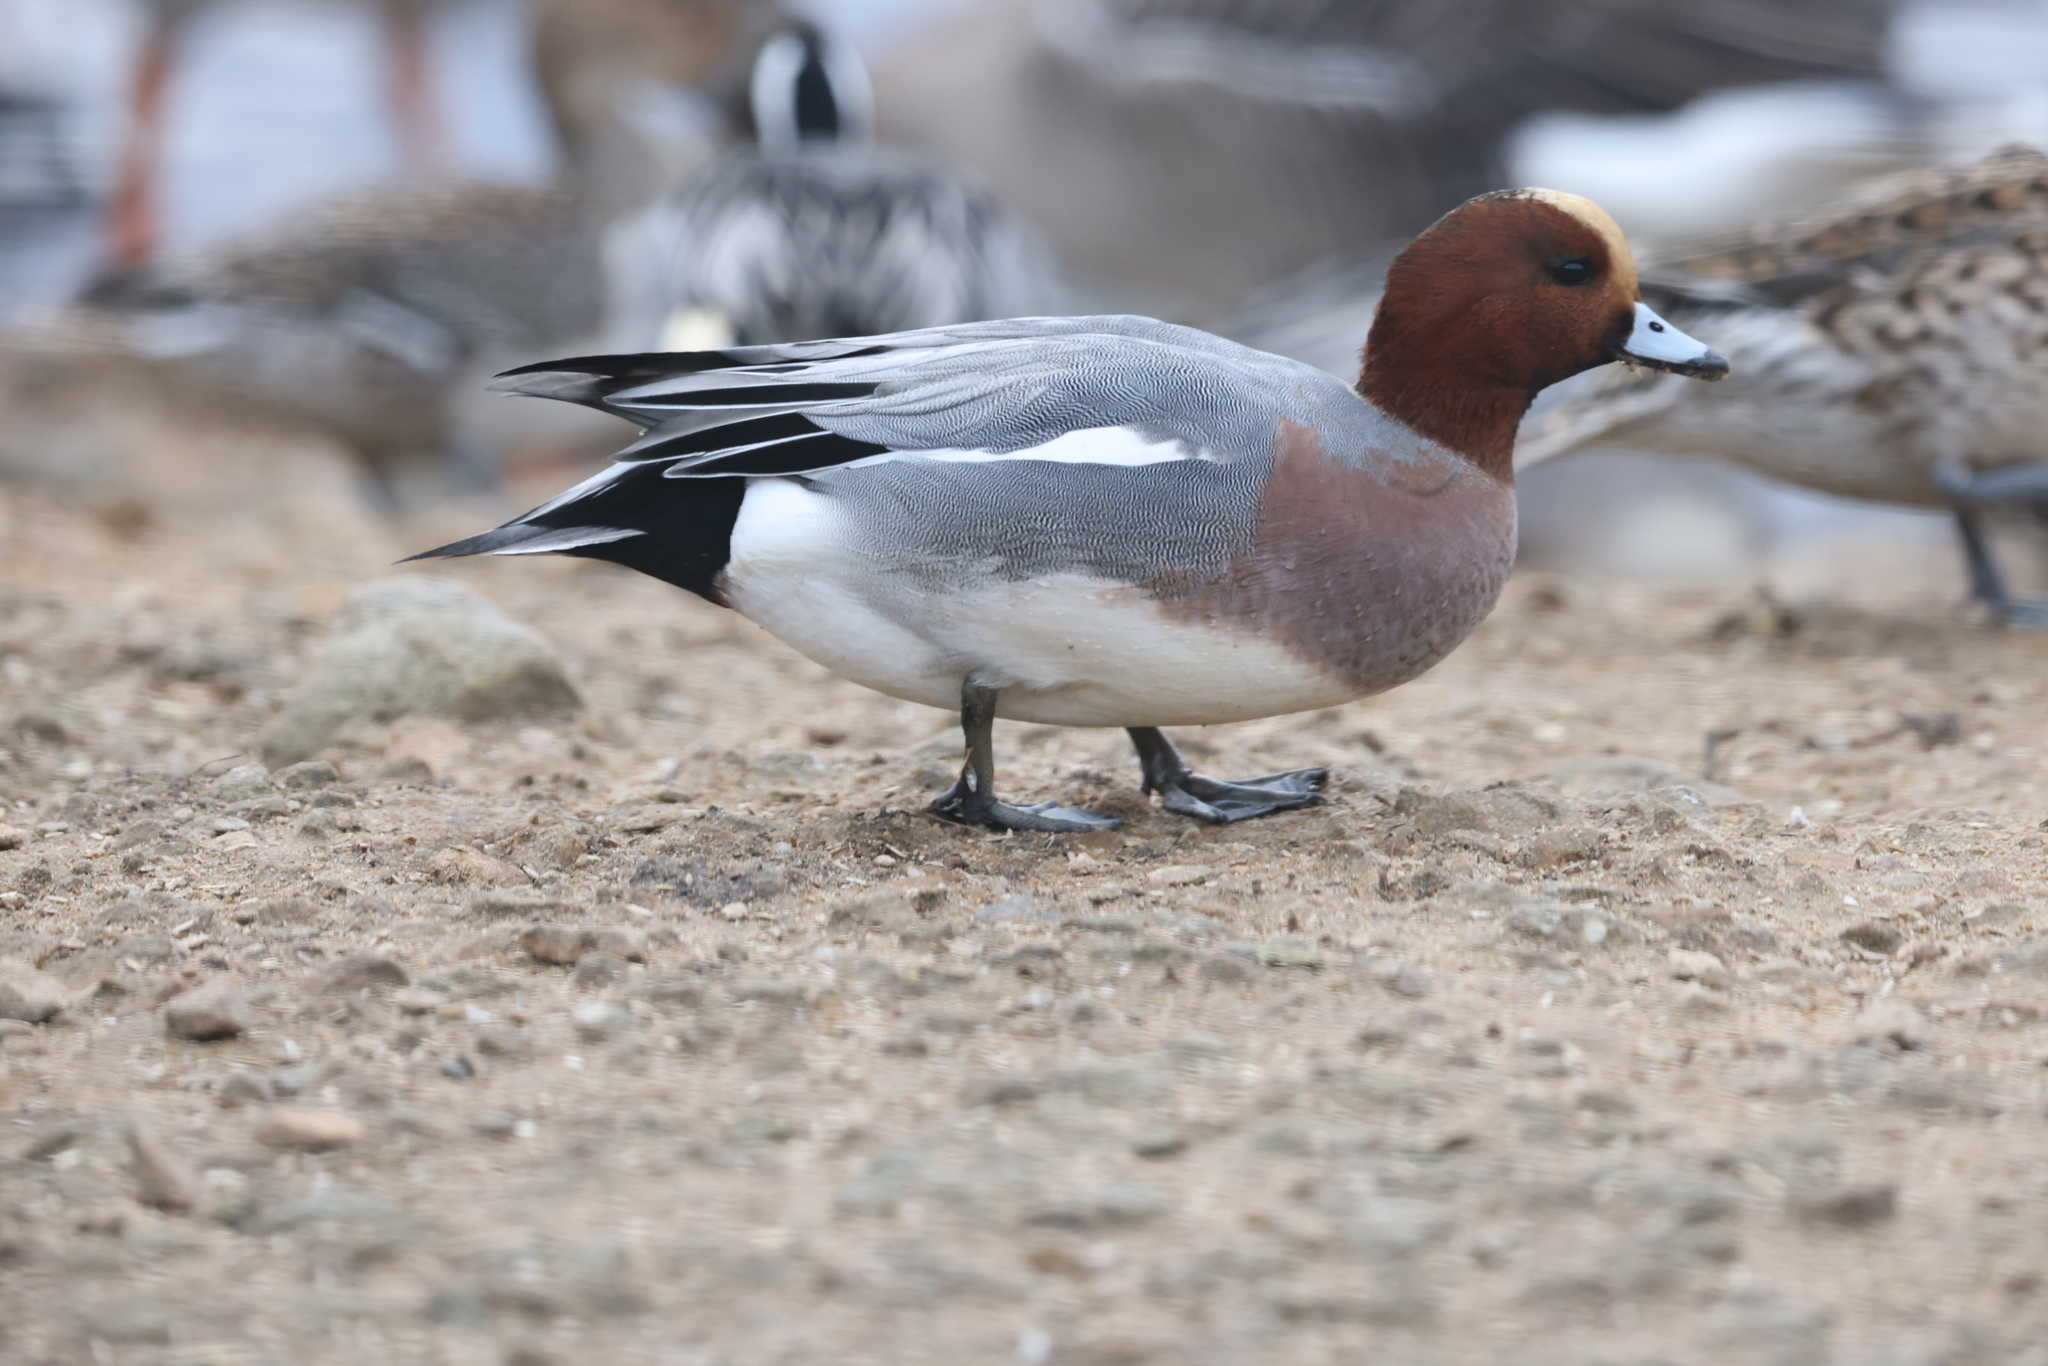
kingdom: Animalia
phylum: Chordata
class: Aves
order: Anseriformes
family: Anatidae
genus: Mareca
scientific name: Mareca penelope
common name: Eurasian wigeon
